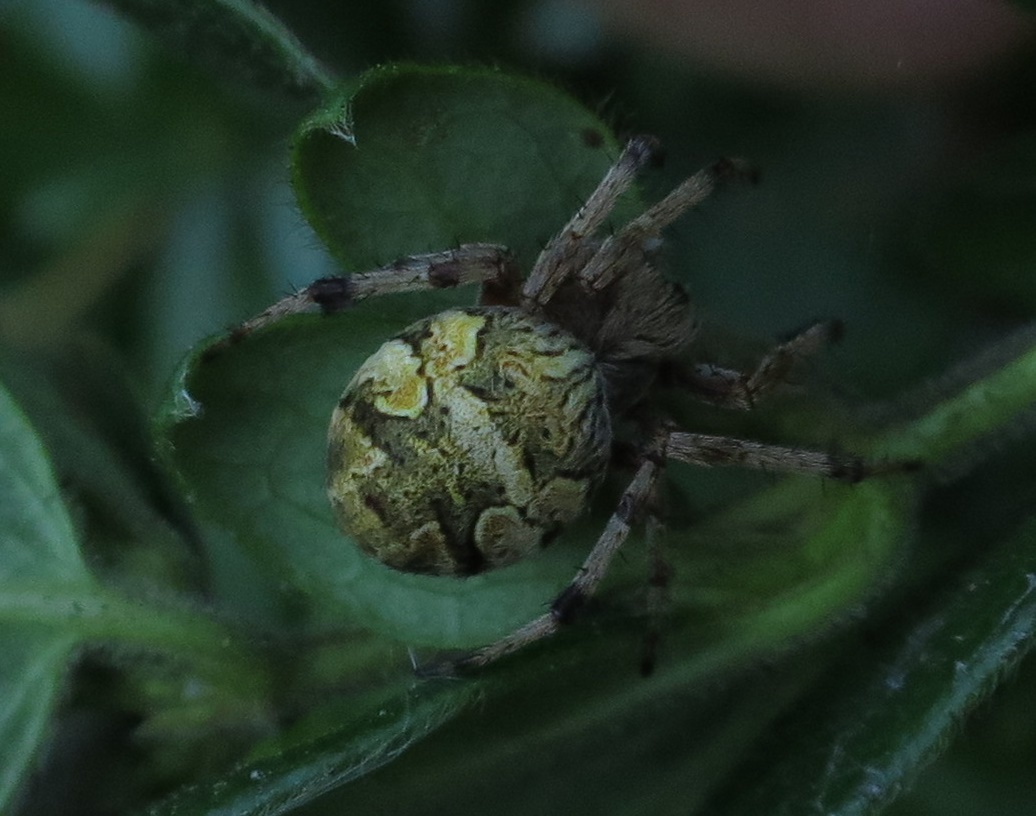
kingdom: Animalia
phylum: Arthropoda
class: Arachnida
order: Araneae
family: Araneidae
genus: Salsa
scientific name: Salsa fuliginata
